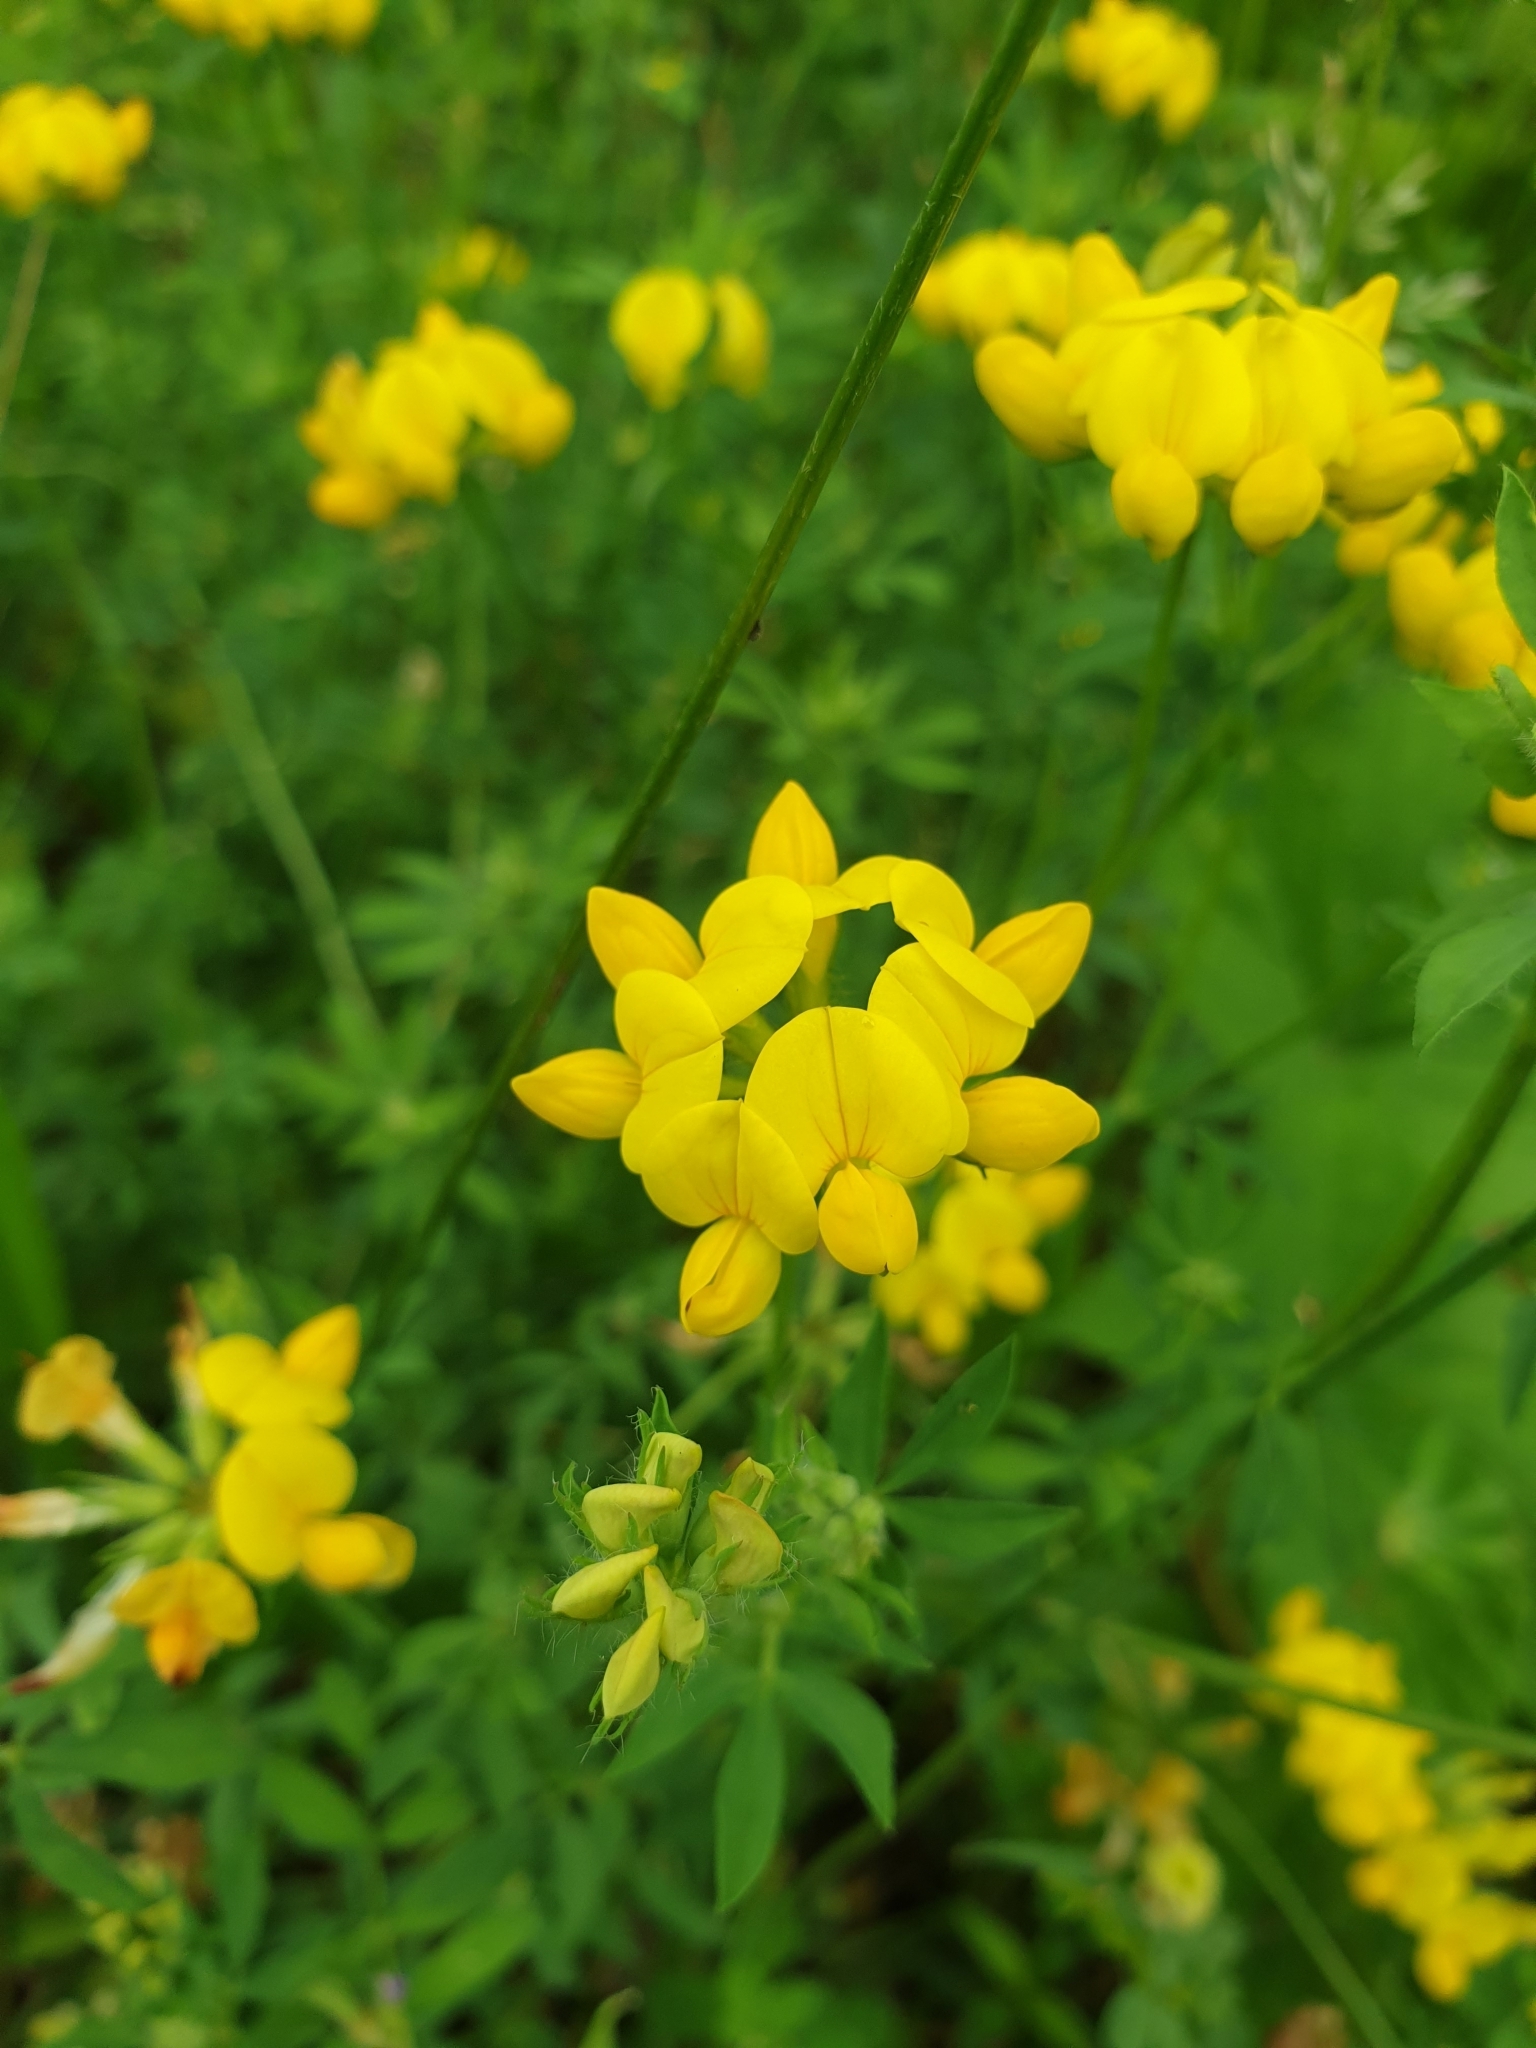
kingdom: Plantae
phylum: Tracheophyta
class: Magnoliopsida
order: Fabales
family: Fabaceae
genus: Lotus
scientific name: Lotus corniculatus
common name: Common bird's-foot-trefoil
